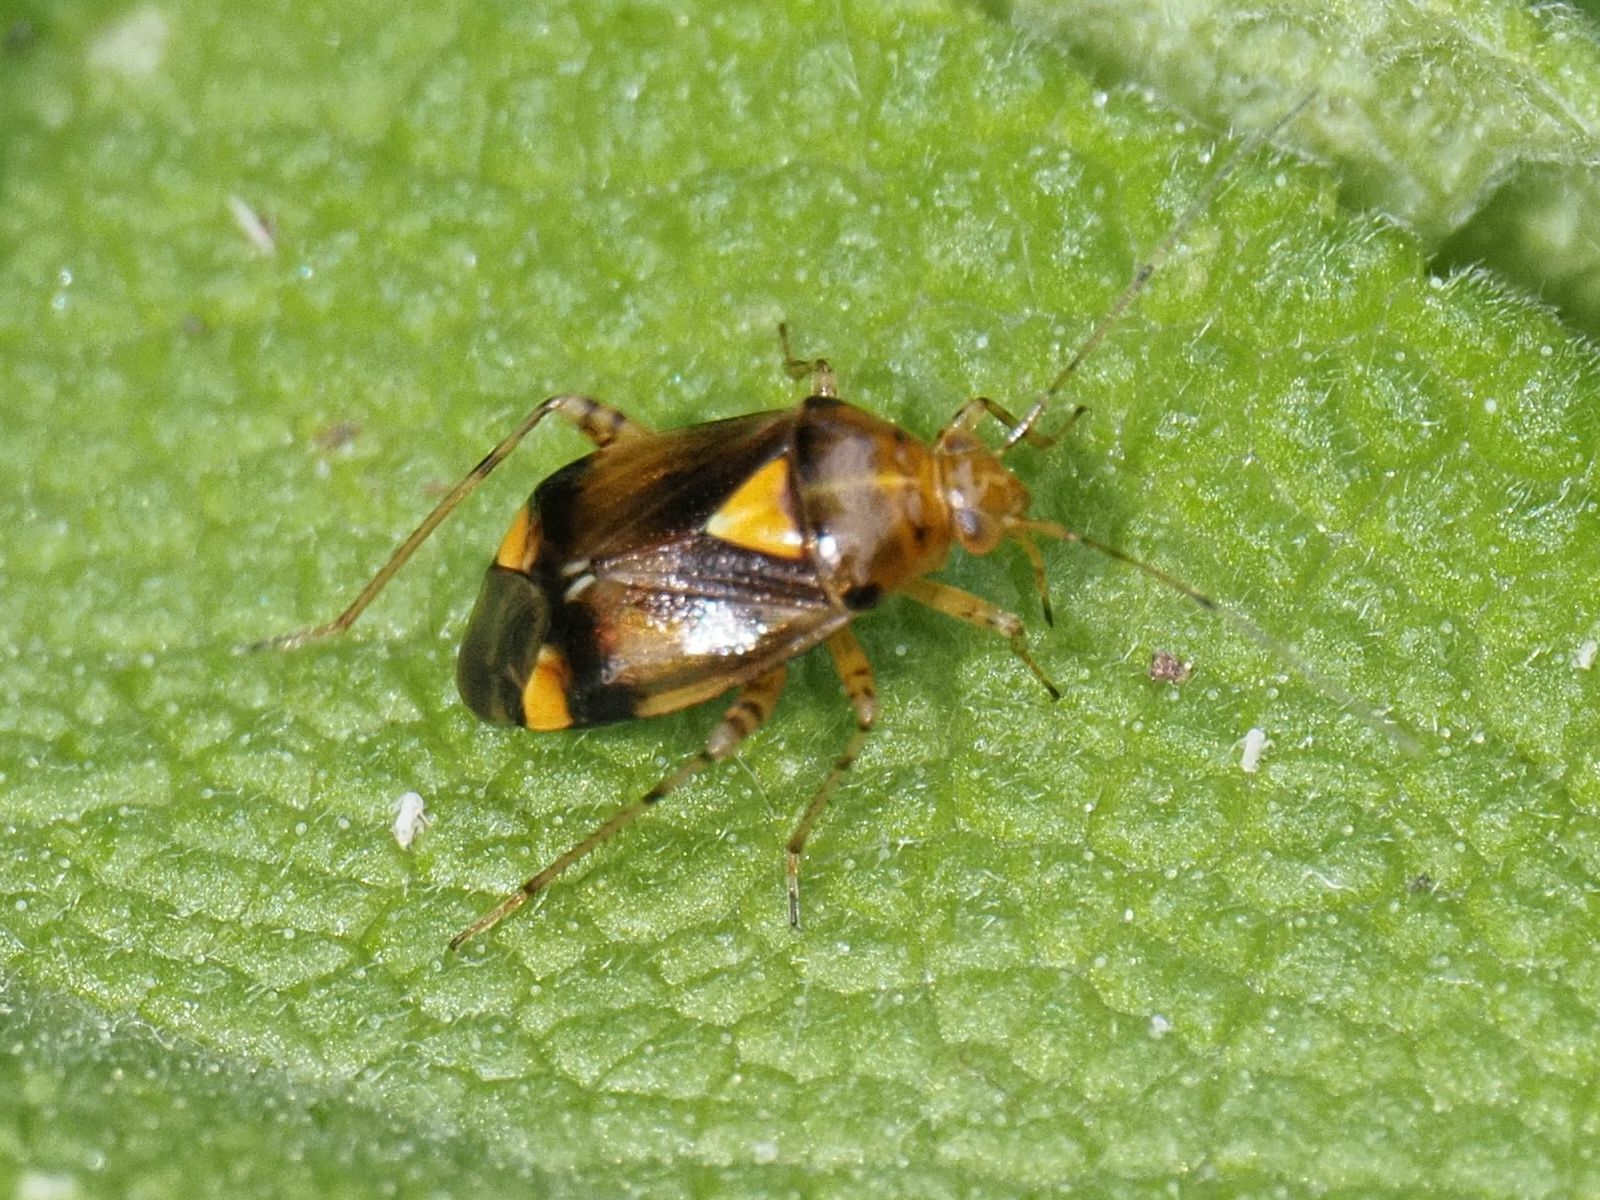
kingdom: Animalia
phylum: Arthropoda
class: Insecta
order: Hemiptera
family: Miridae
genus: Liocoris
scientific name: Liocoris tripustulatus
